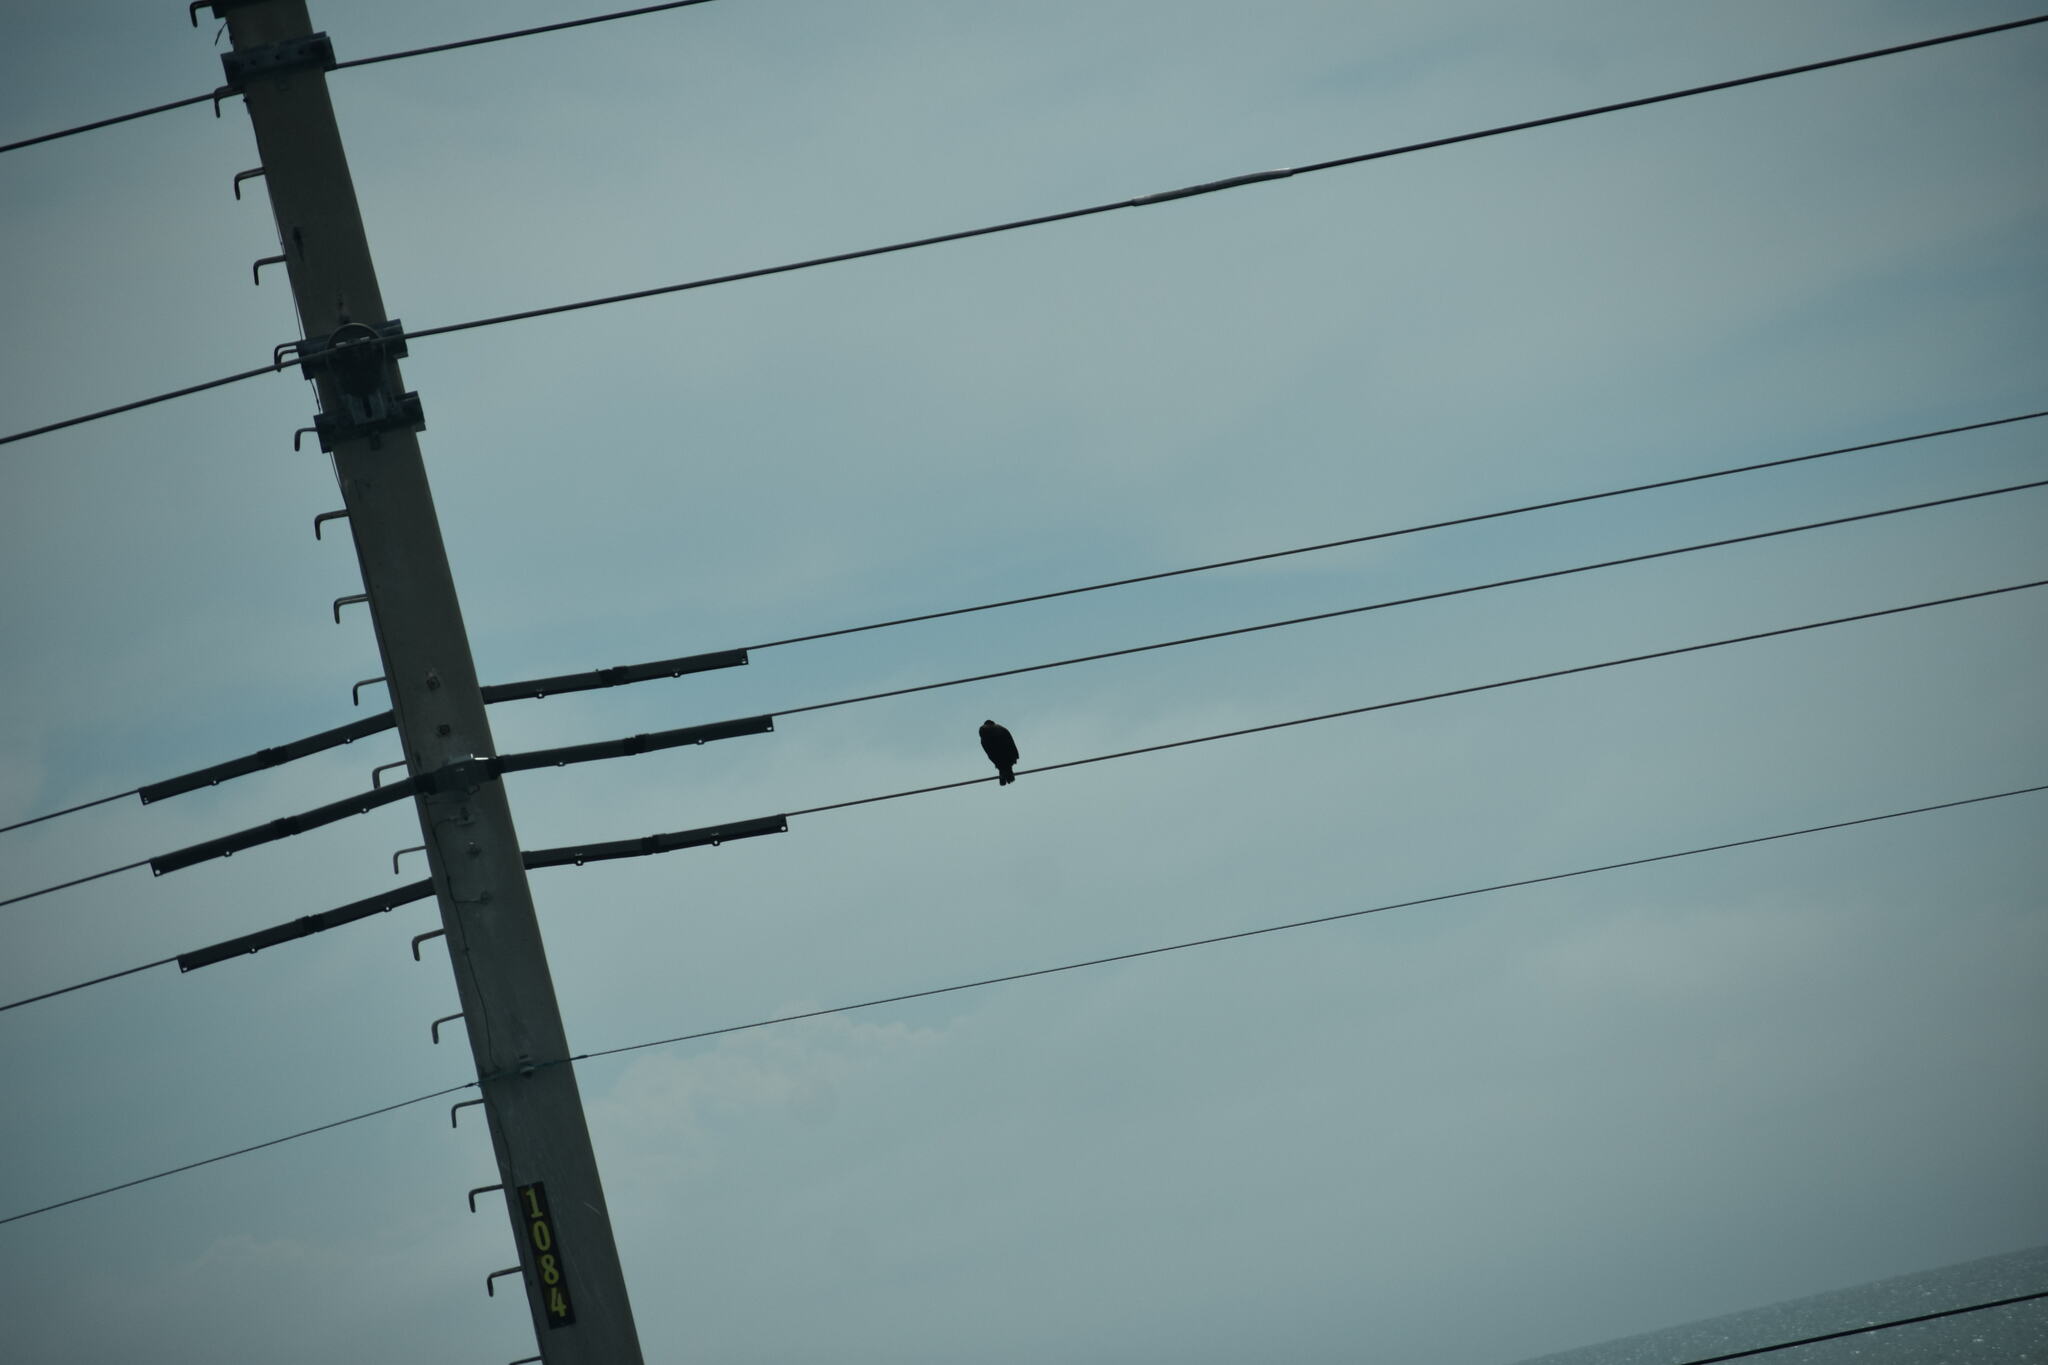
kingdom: Animalia
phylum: Chordata
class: Aves
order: Suliformes
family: Phalacrocoracidae
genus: Phalacrocorax
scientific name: Phalacrocorax auritus
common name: Double-crested cormorant
